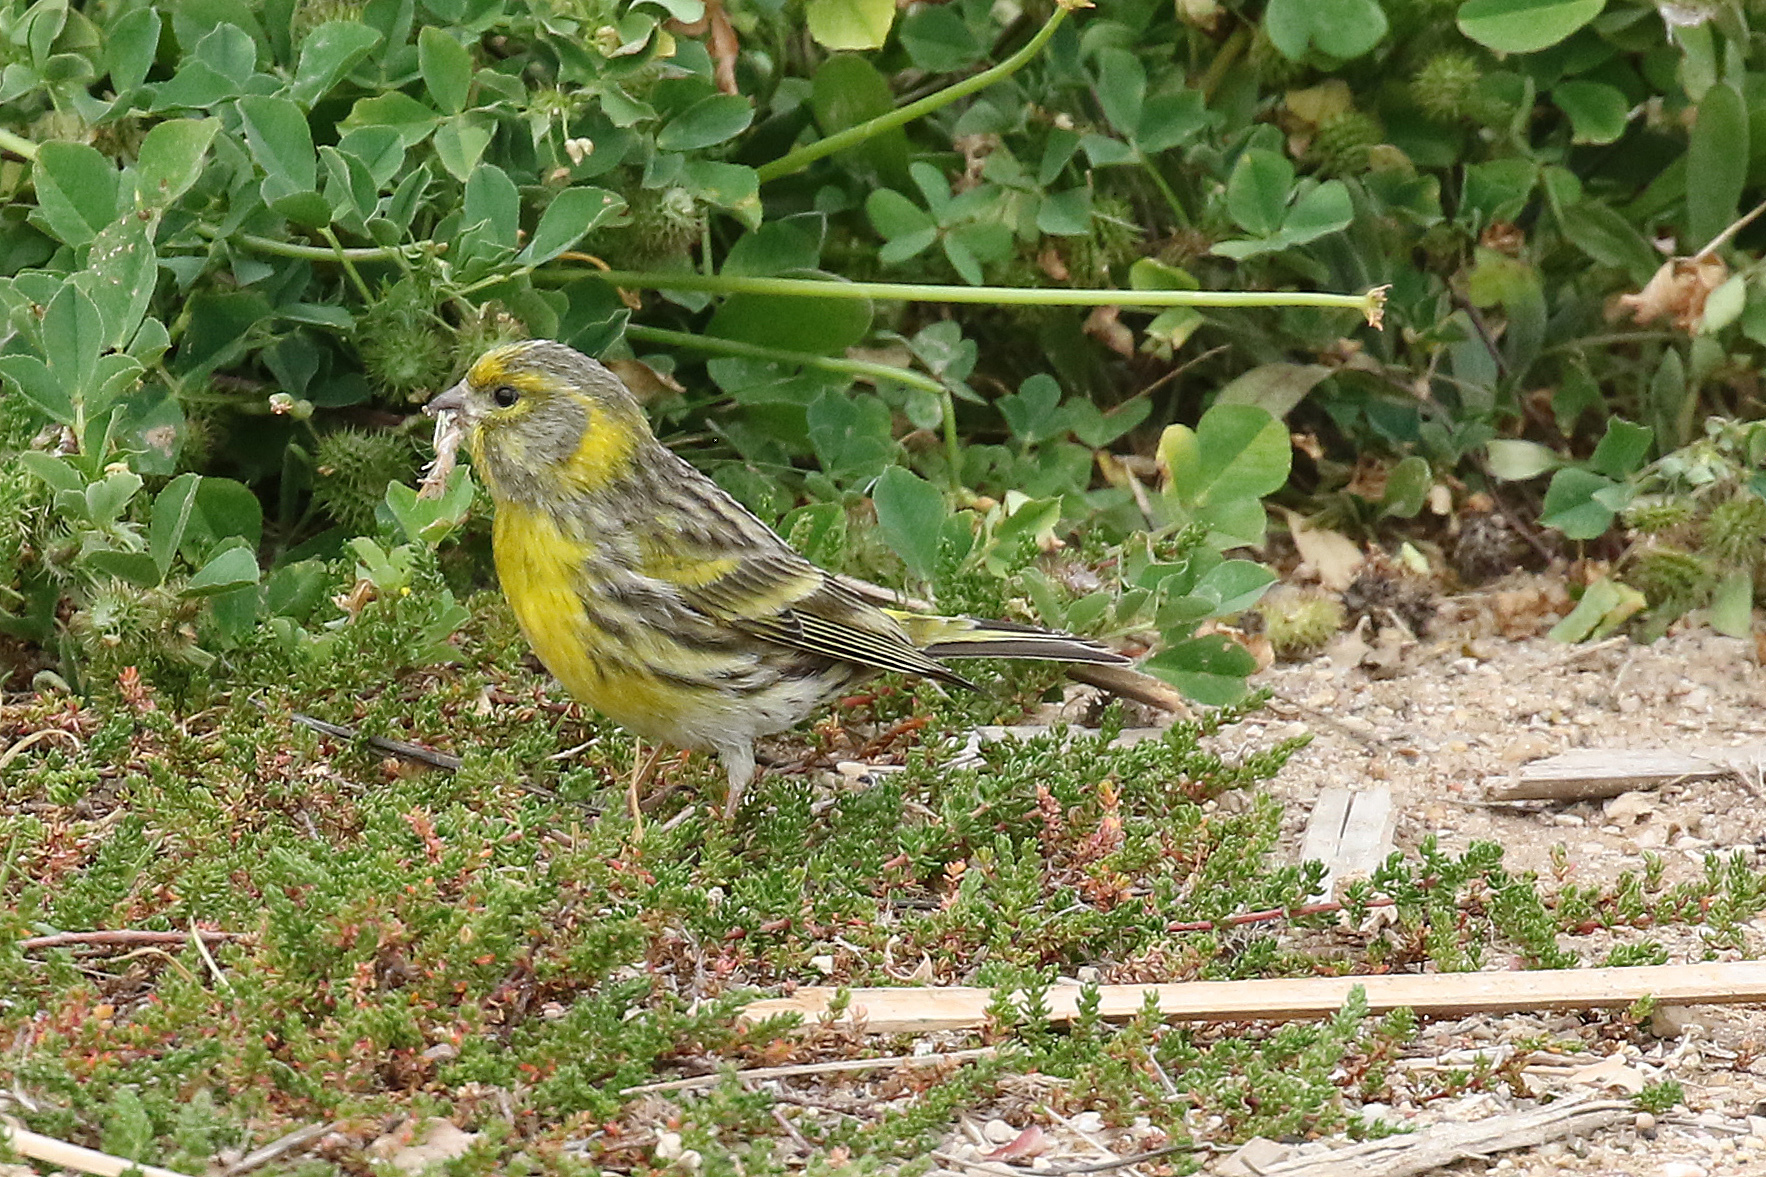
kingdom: Animalia
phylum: Chordata
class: Aves
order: Passeriformes
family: Fringillidae
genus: Serinus
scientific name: Serinus serinus
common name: European serin
